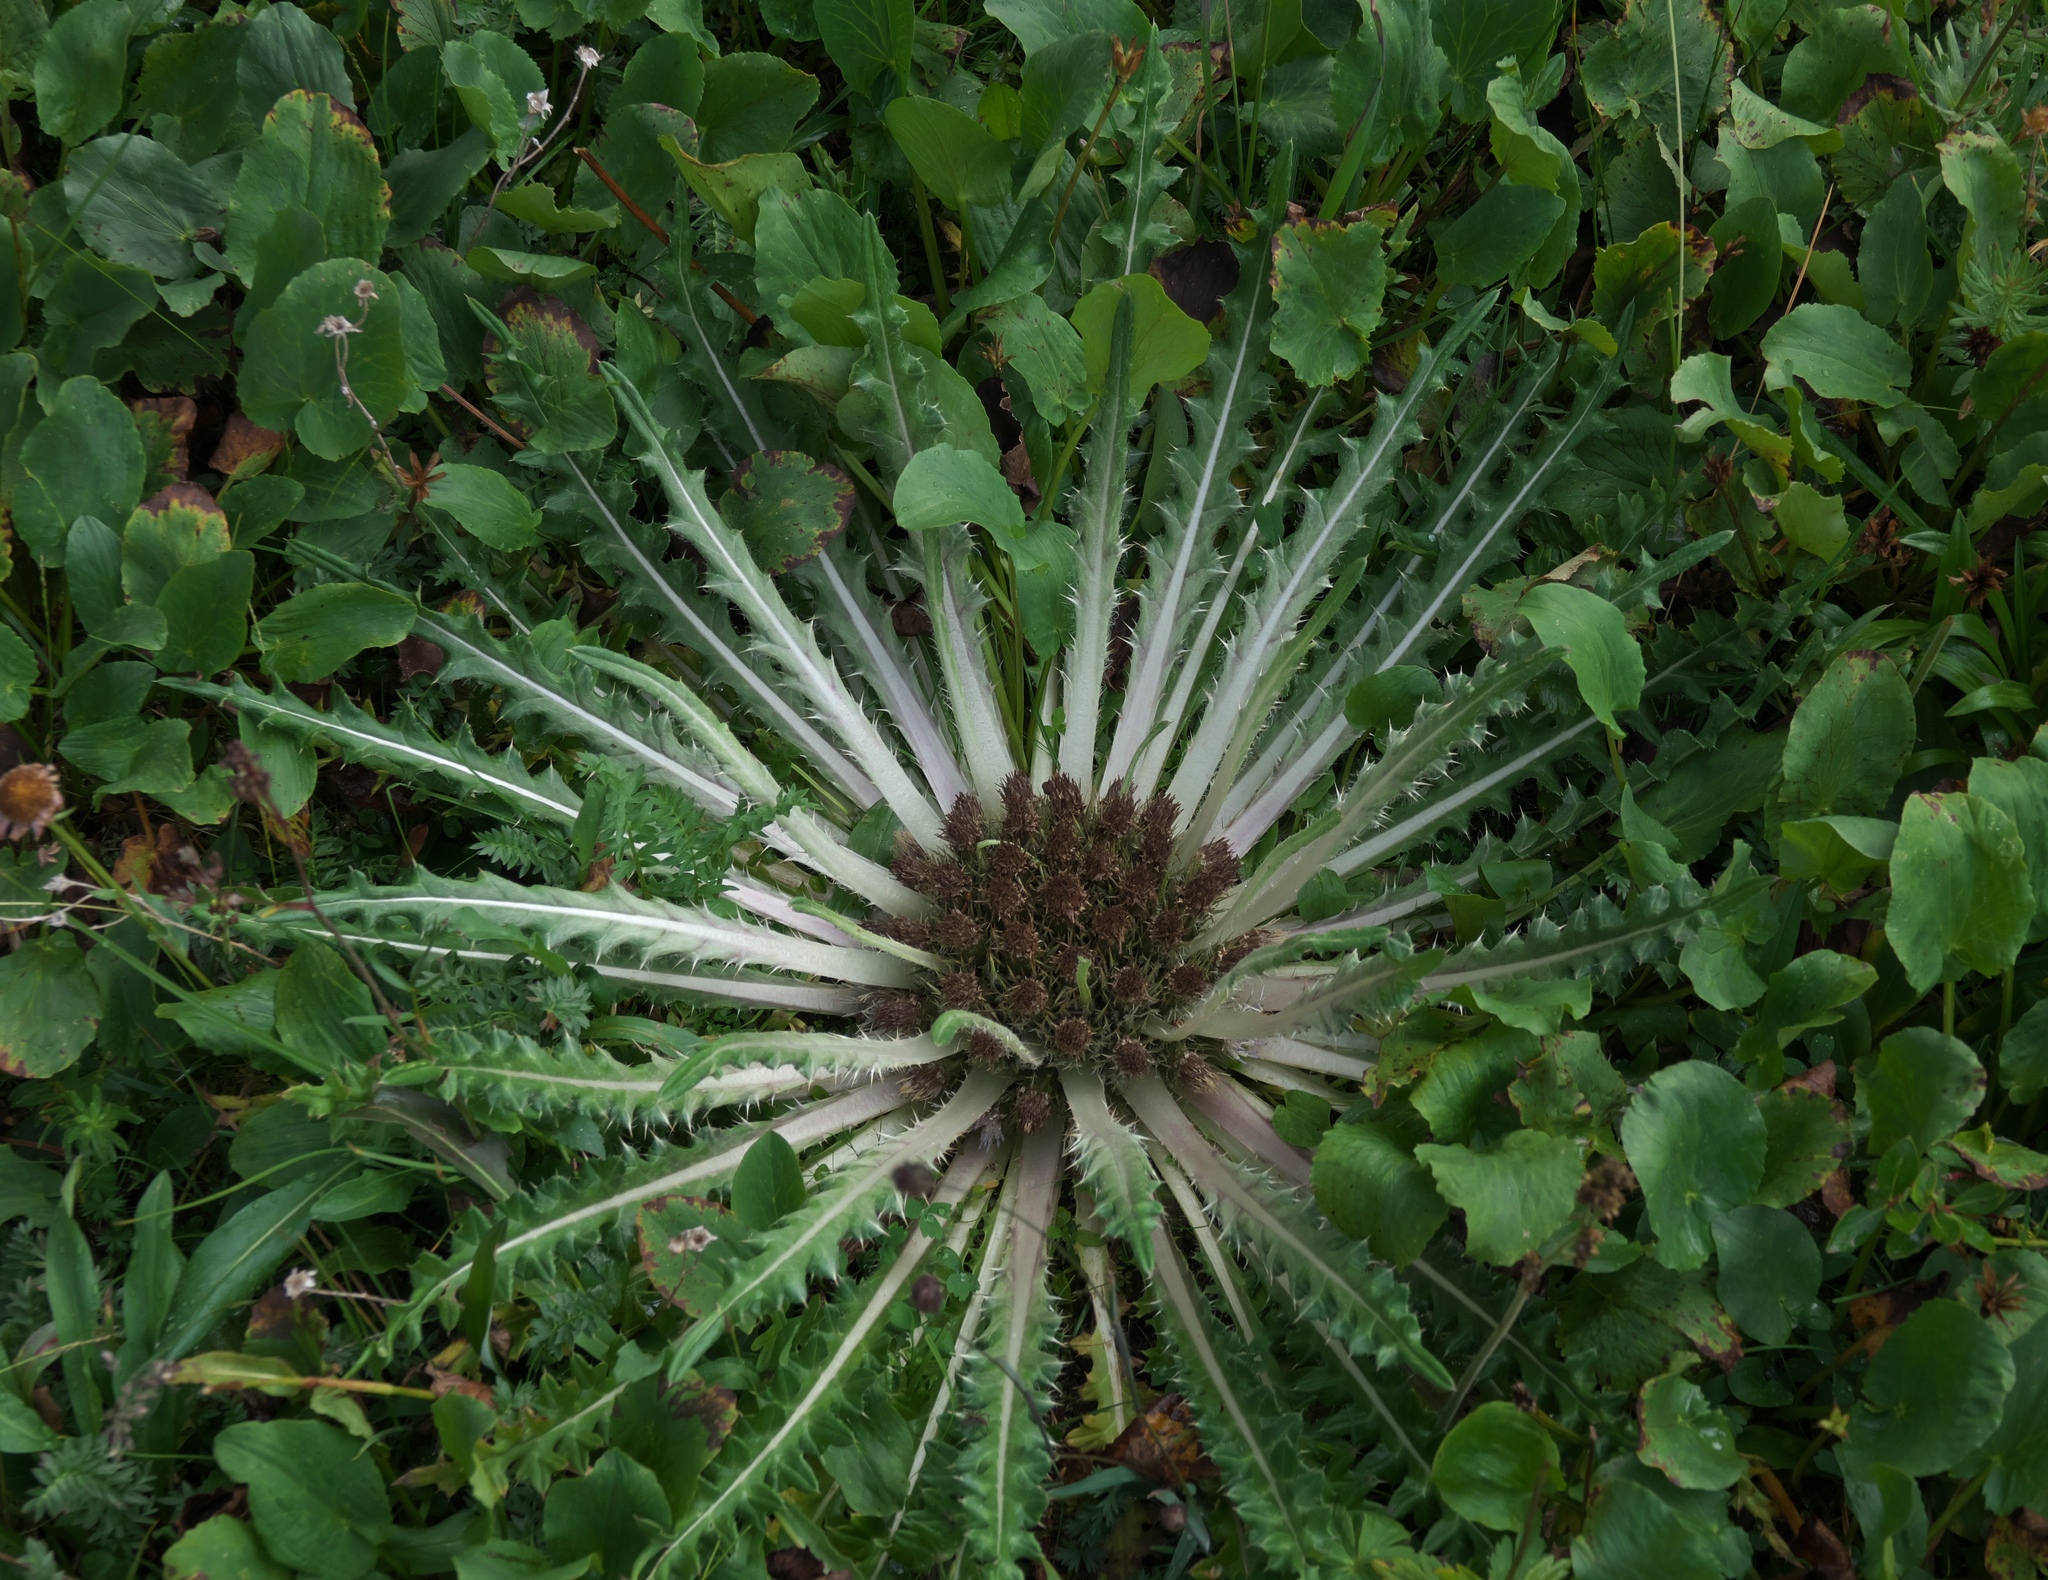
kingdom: Plantae
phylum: Tracheophyta
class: Magnoliopsida
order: Asterales
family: Asteraceae
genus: Cirsium
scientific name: Cirsium tioganum
